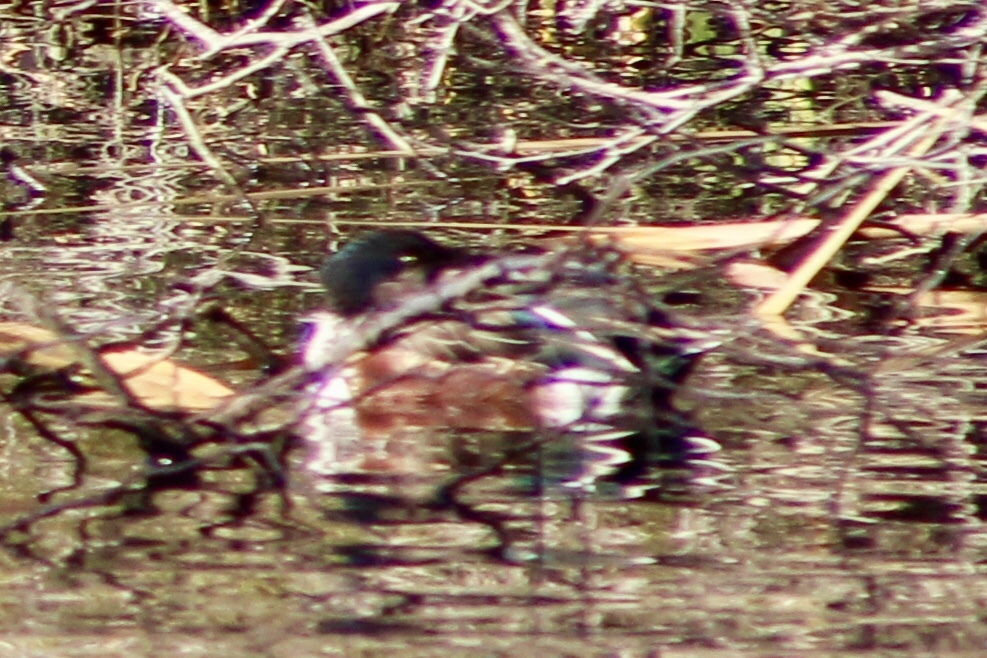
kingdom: Animalia
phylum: Chordata
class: Aves
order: Anseriformes
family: Anatidae
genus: Spatula
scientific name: Spatula clypeata
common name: Northern shoveler
